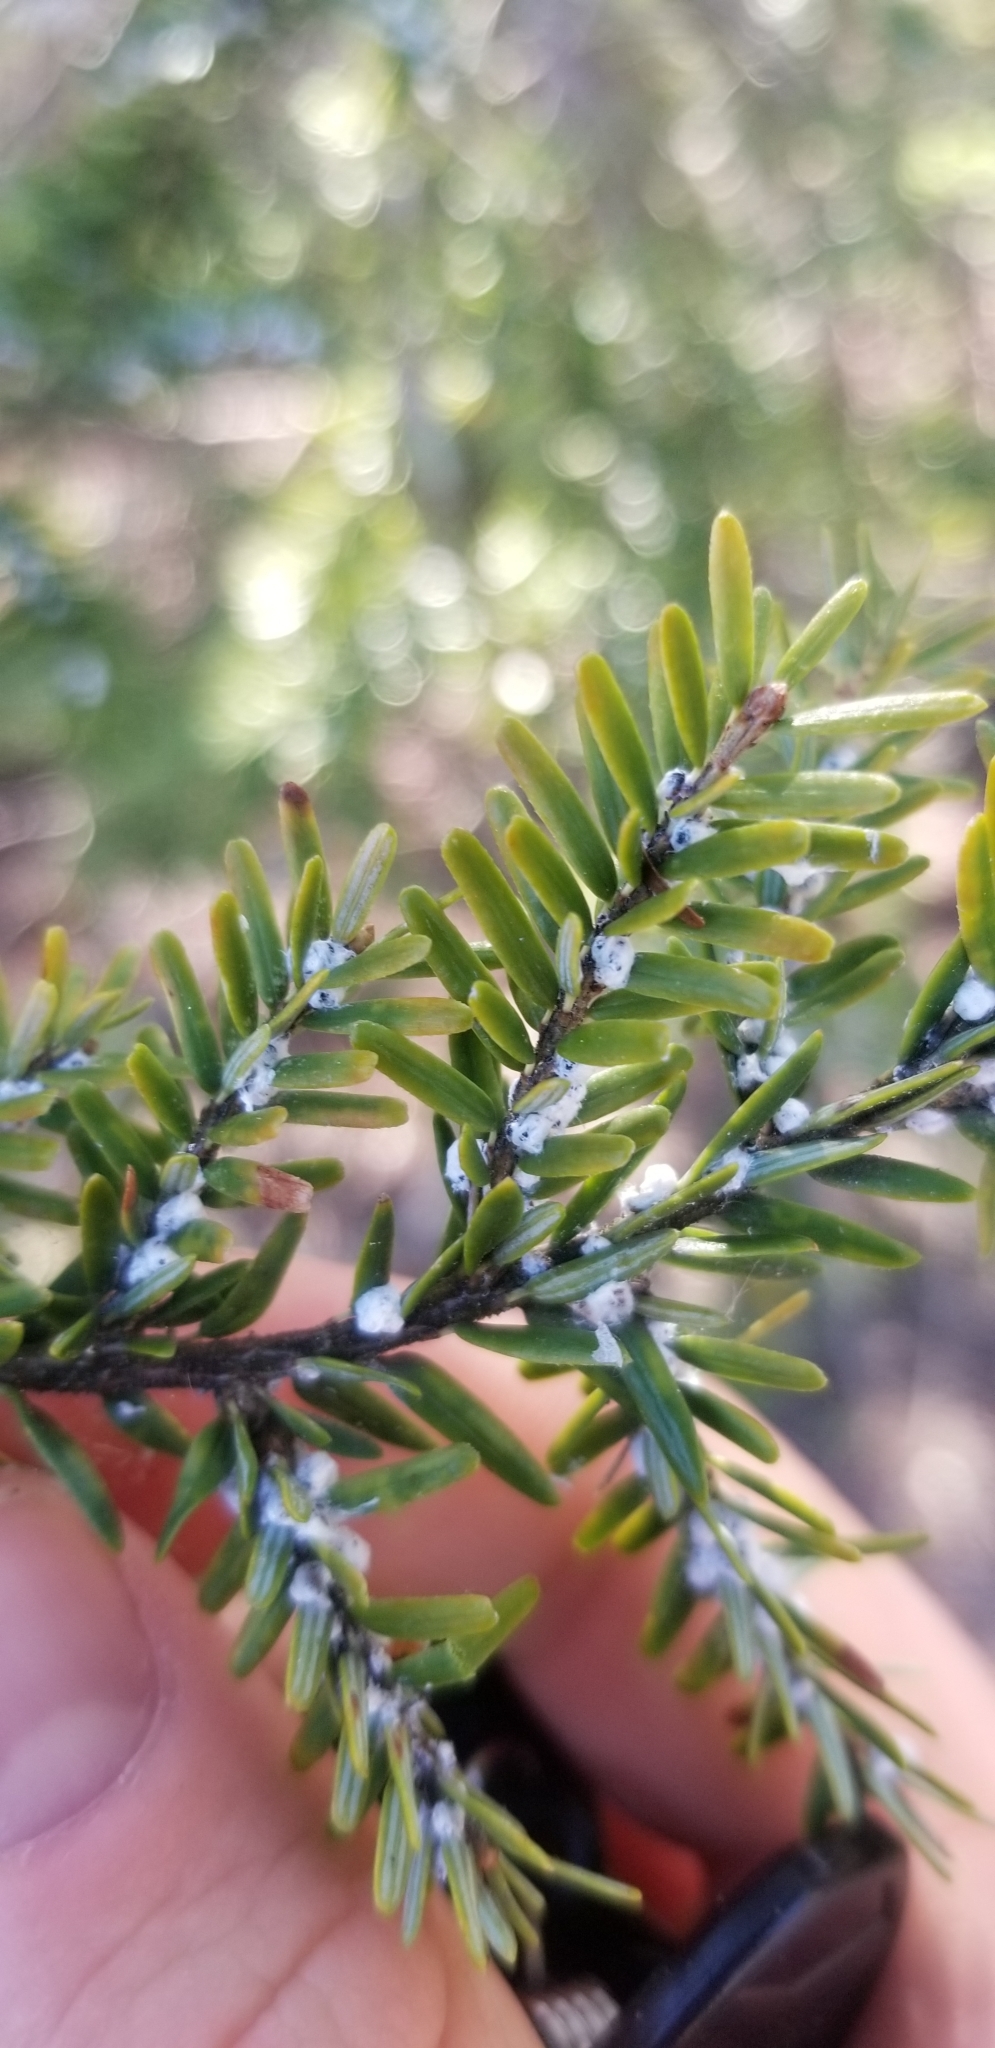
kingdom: Animalia
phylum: Arthropoda
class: Insecta
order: Hemiptera
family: Adelgidae
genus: Adelges
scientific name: Adelges tsugae
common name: Hemlock woolly adelgid
